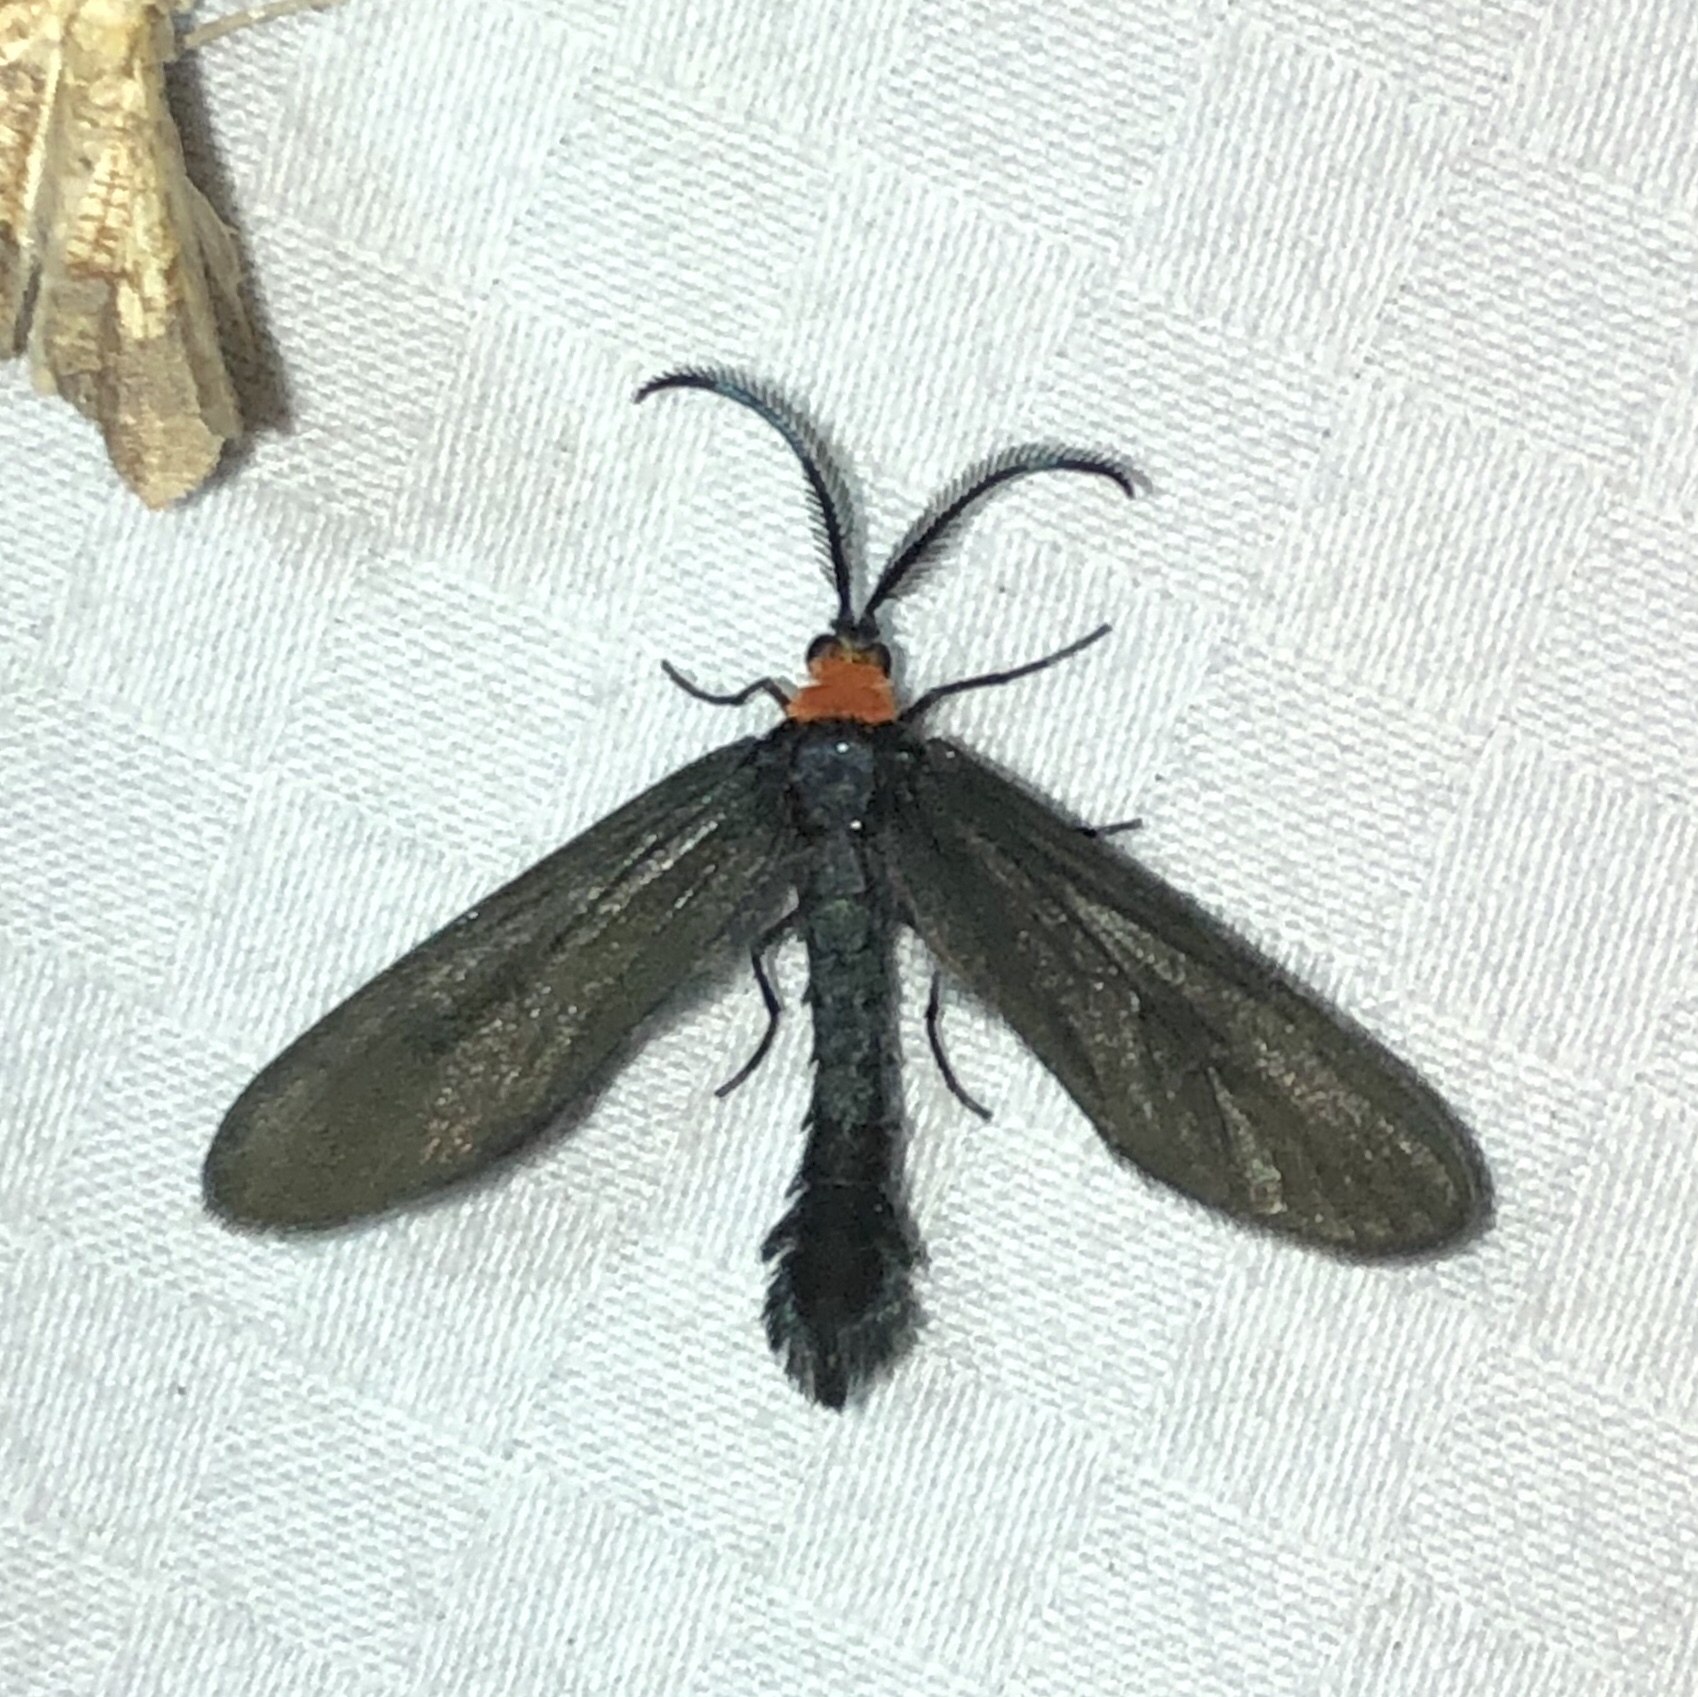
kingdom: Animalia
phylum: Arthropoda
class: Insecta
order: Lepidoptera
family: Zygaenidae
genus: Harrisina
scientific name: Harrisina americana
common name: Grapeleaf skeletonizer moth
